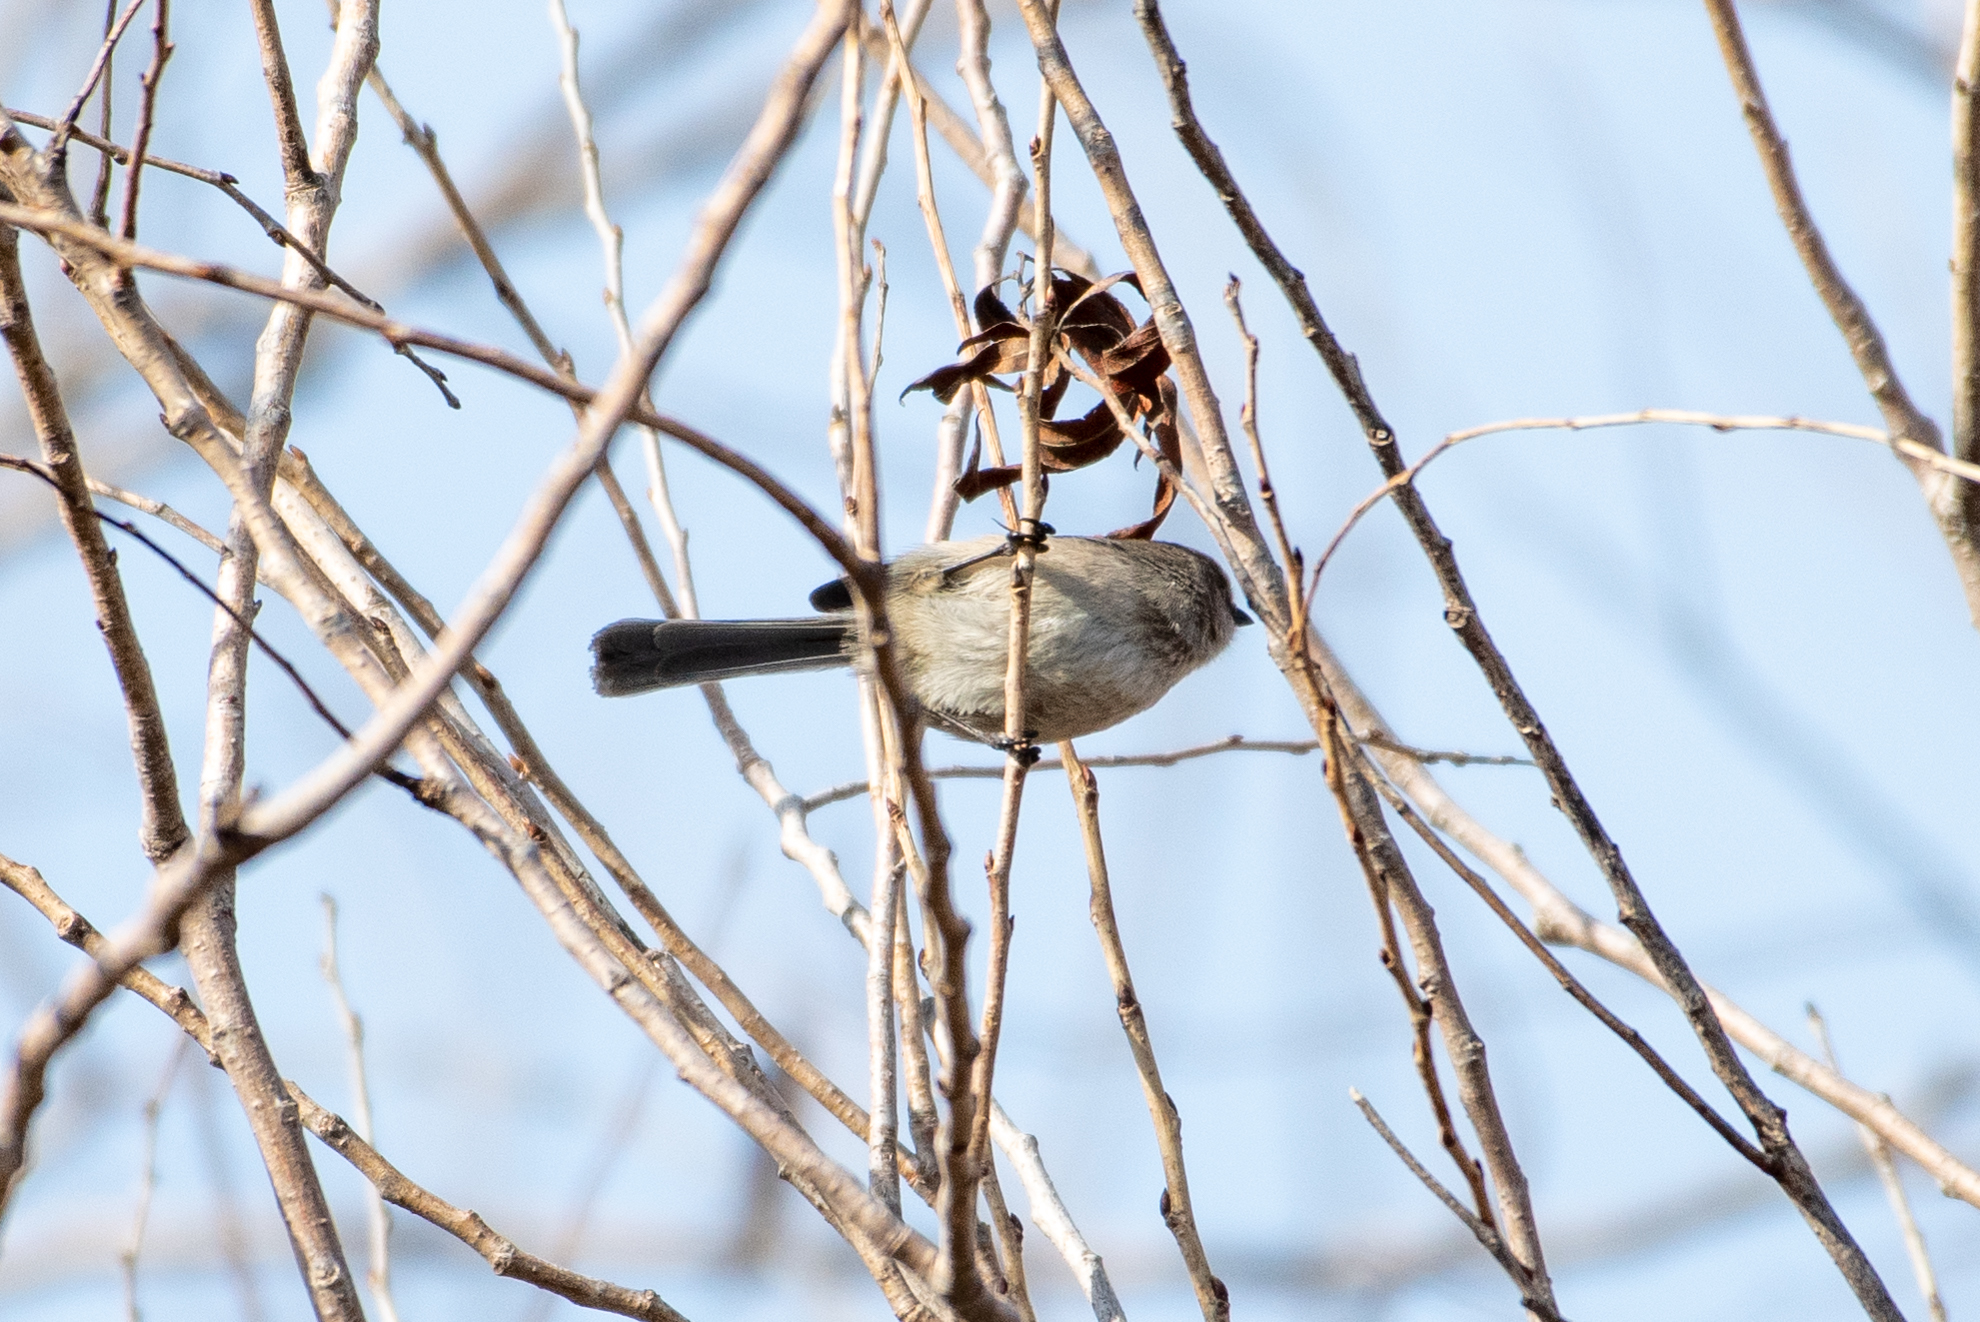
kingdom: Animalia
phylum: Chordata
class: Aves
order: Passeriformes
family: Aegithalidae
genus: Psaltriparus
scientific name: Psaltriparus minimus
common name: American bushtit
